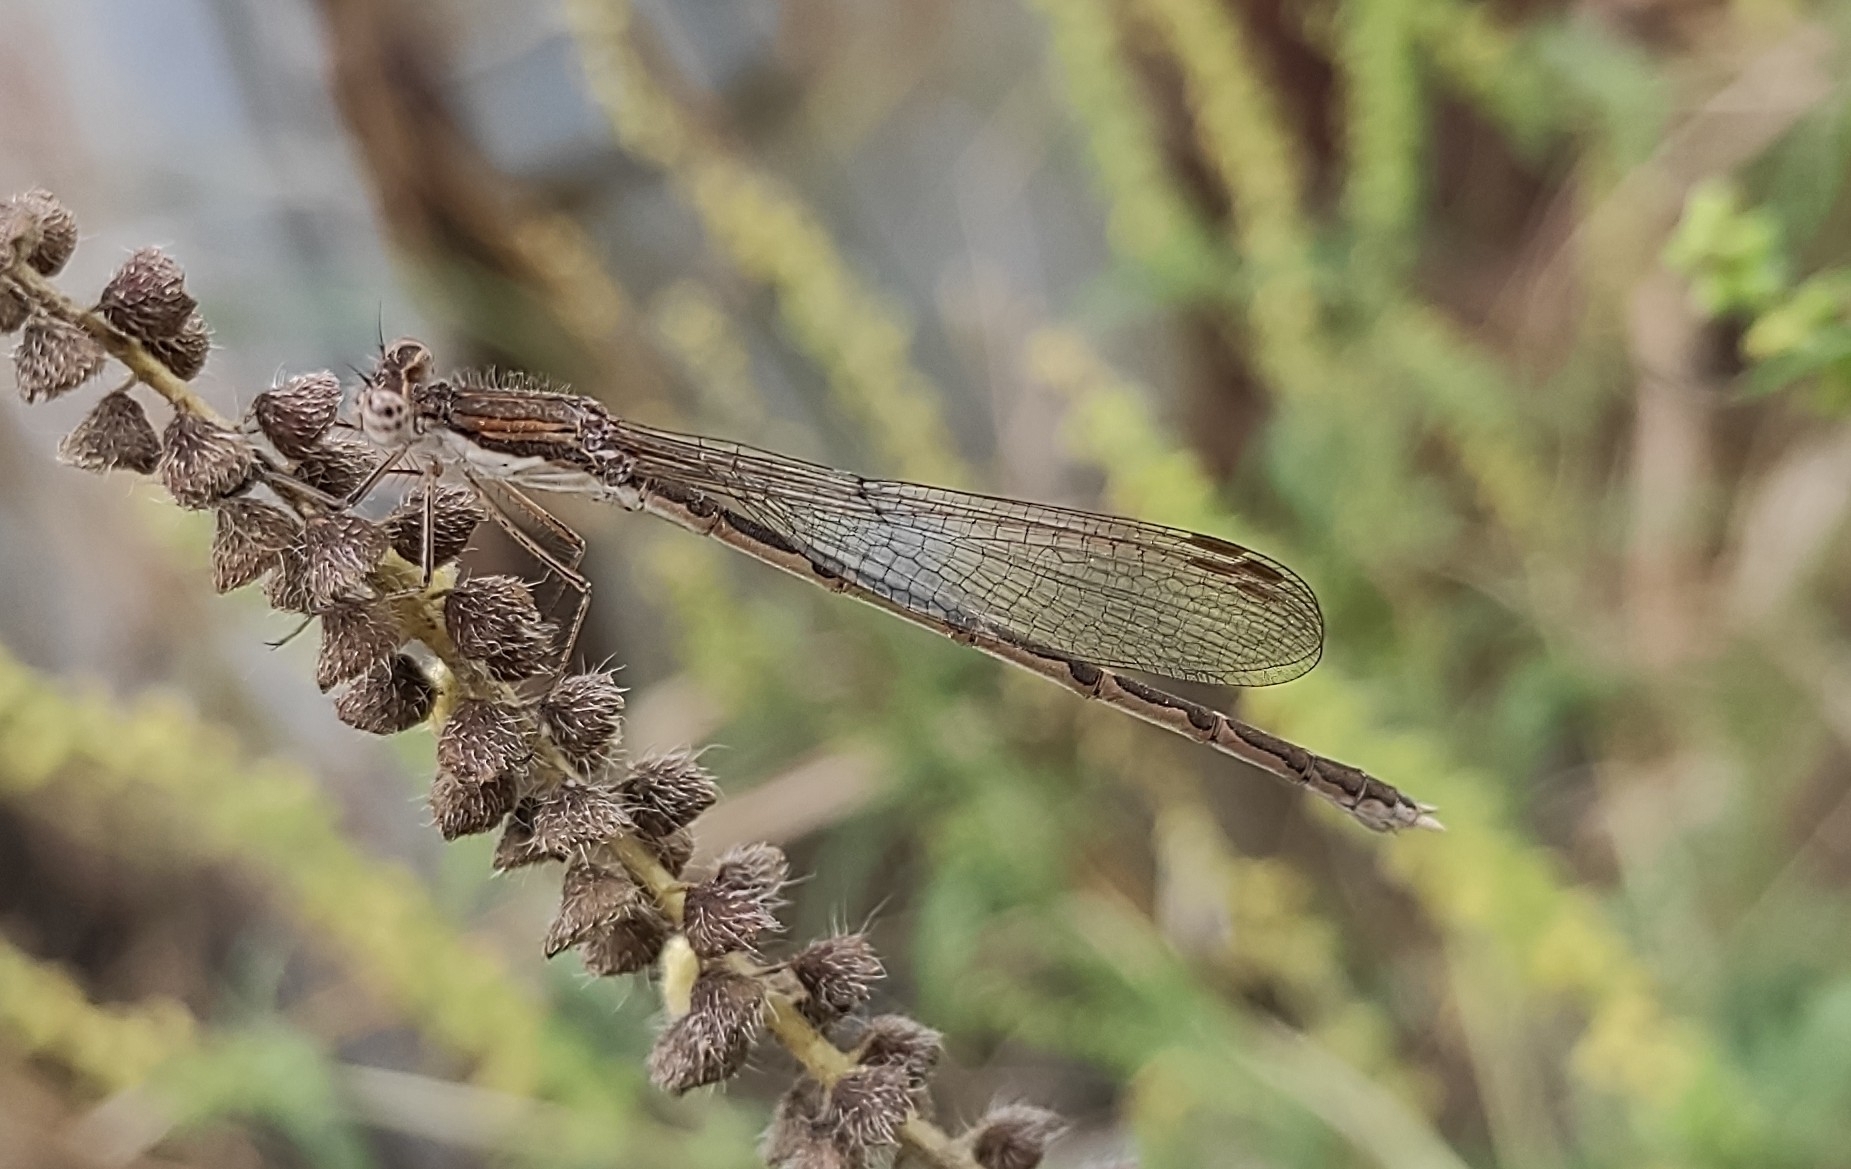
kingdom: Animalia
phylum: Arthropoda
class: Insecta
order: Odonata
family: Lestidae
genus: Sympecma
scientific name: Sympecma fusca
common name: Common winter damsel
